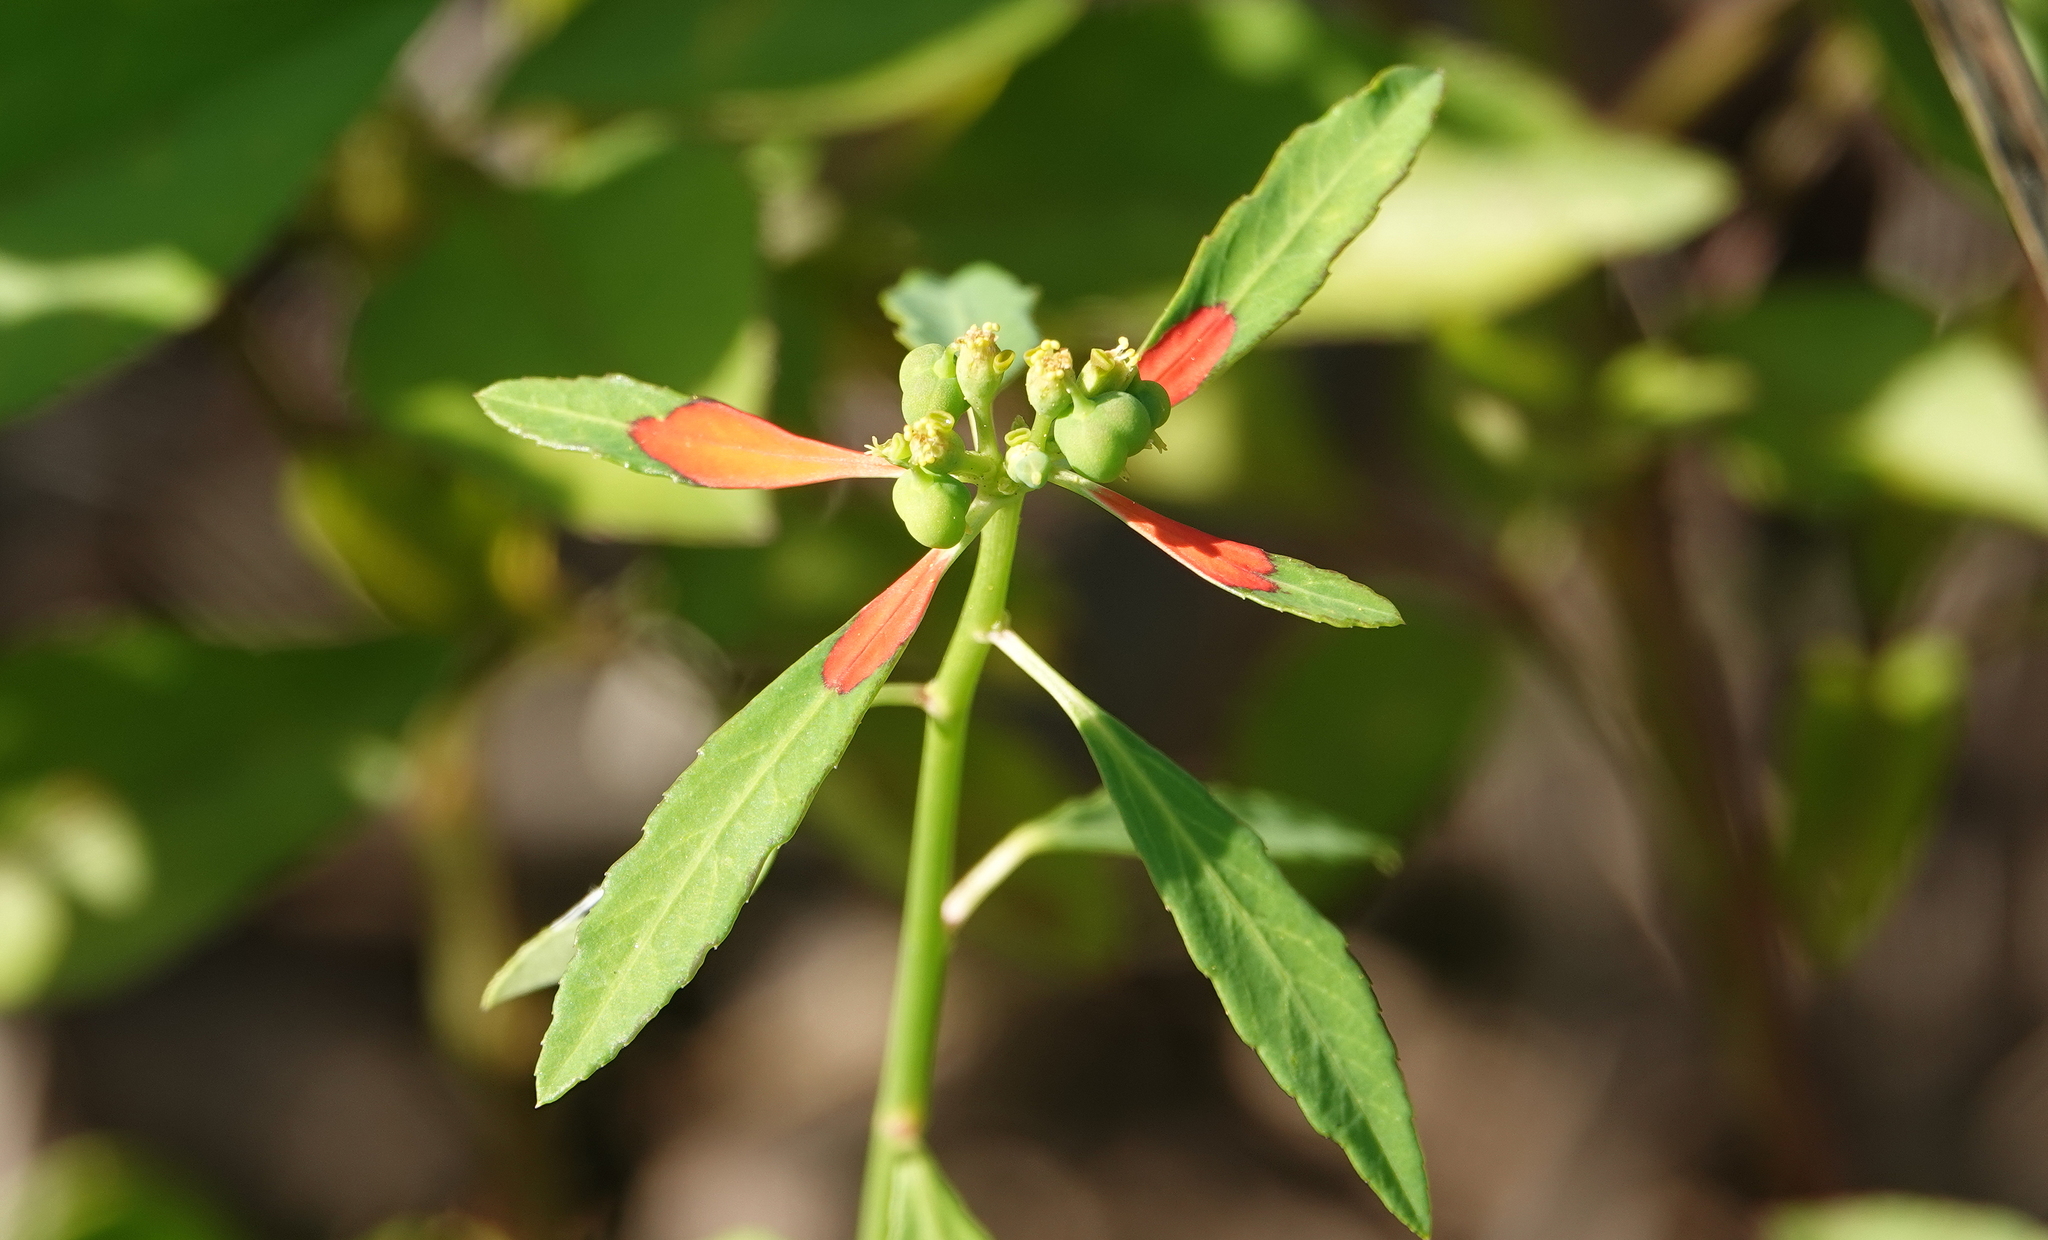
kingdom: Plantae
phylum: Tracheophyta
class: Magnoliopsida
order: Malpighiales
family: Euphorbiaceae
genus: Euphorbia
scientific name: Euphorbia heterophylla
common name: Mexican fireplant
